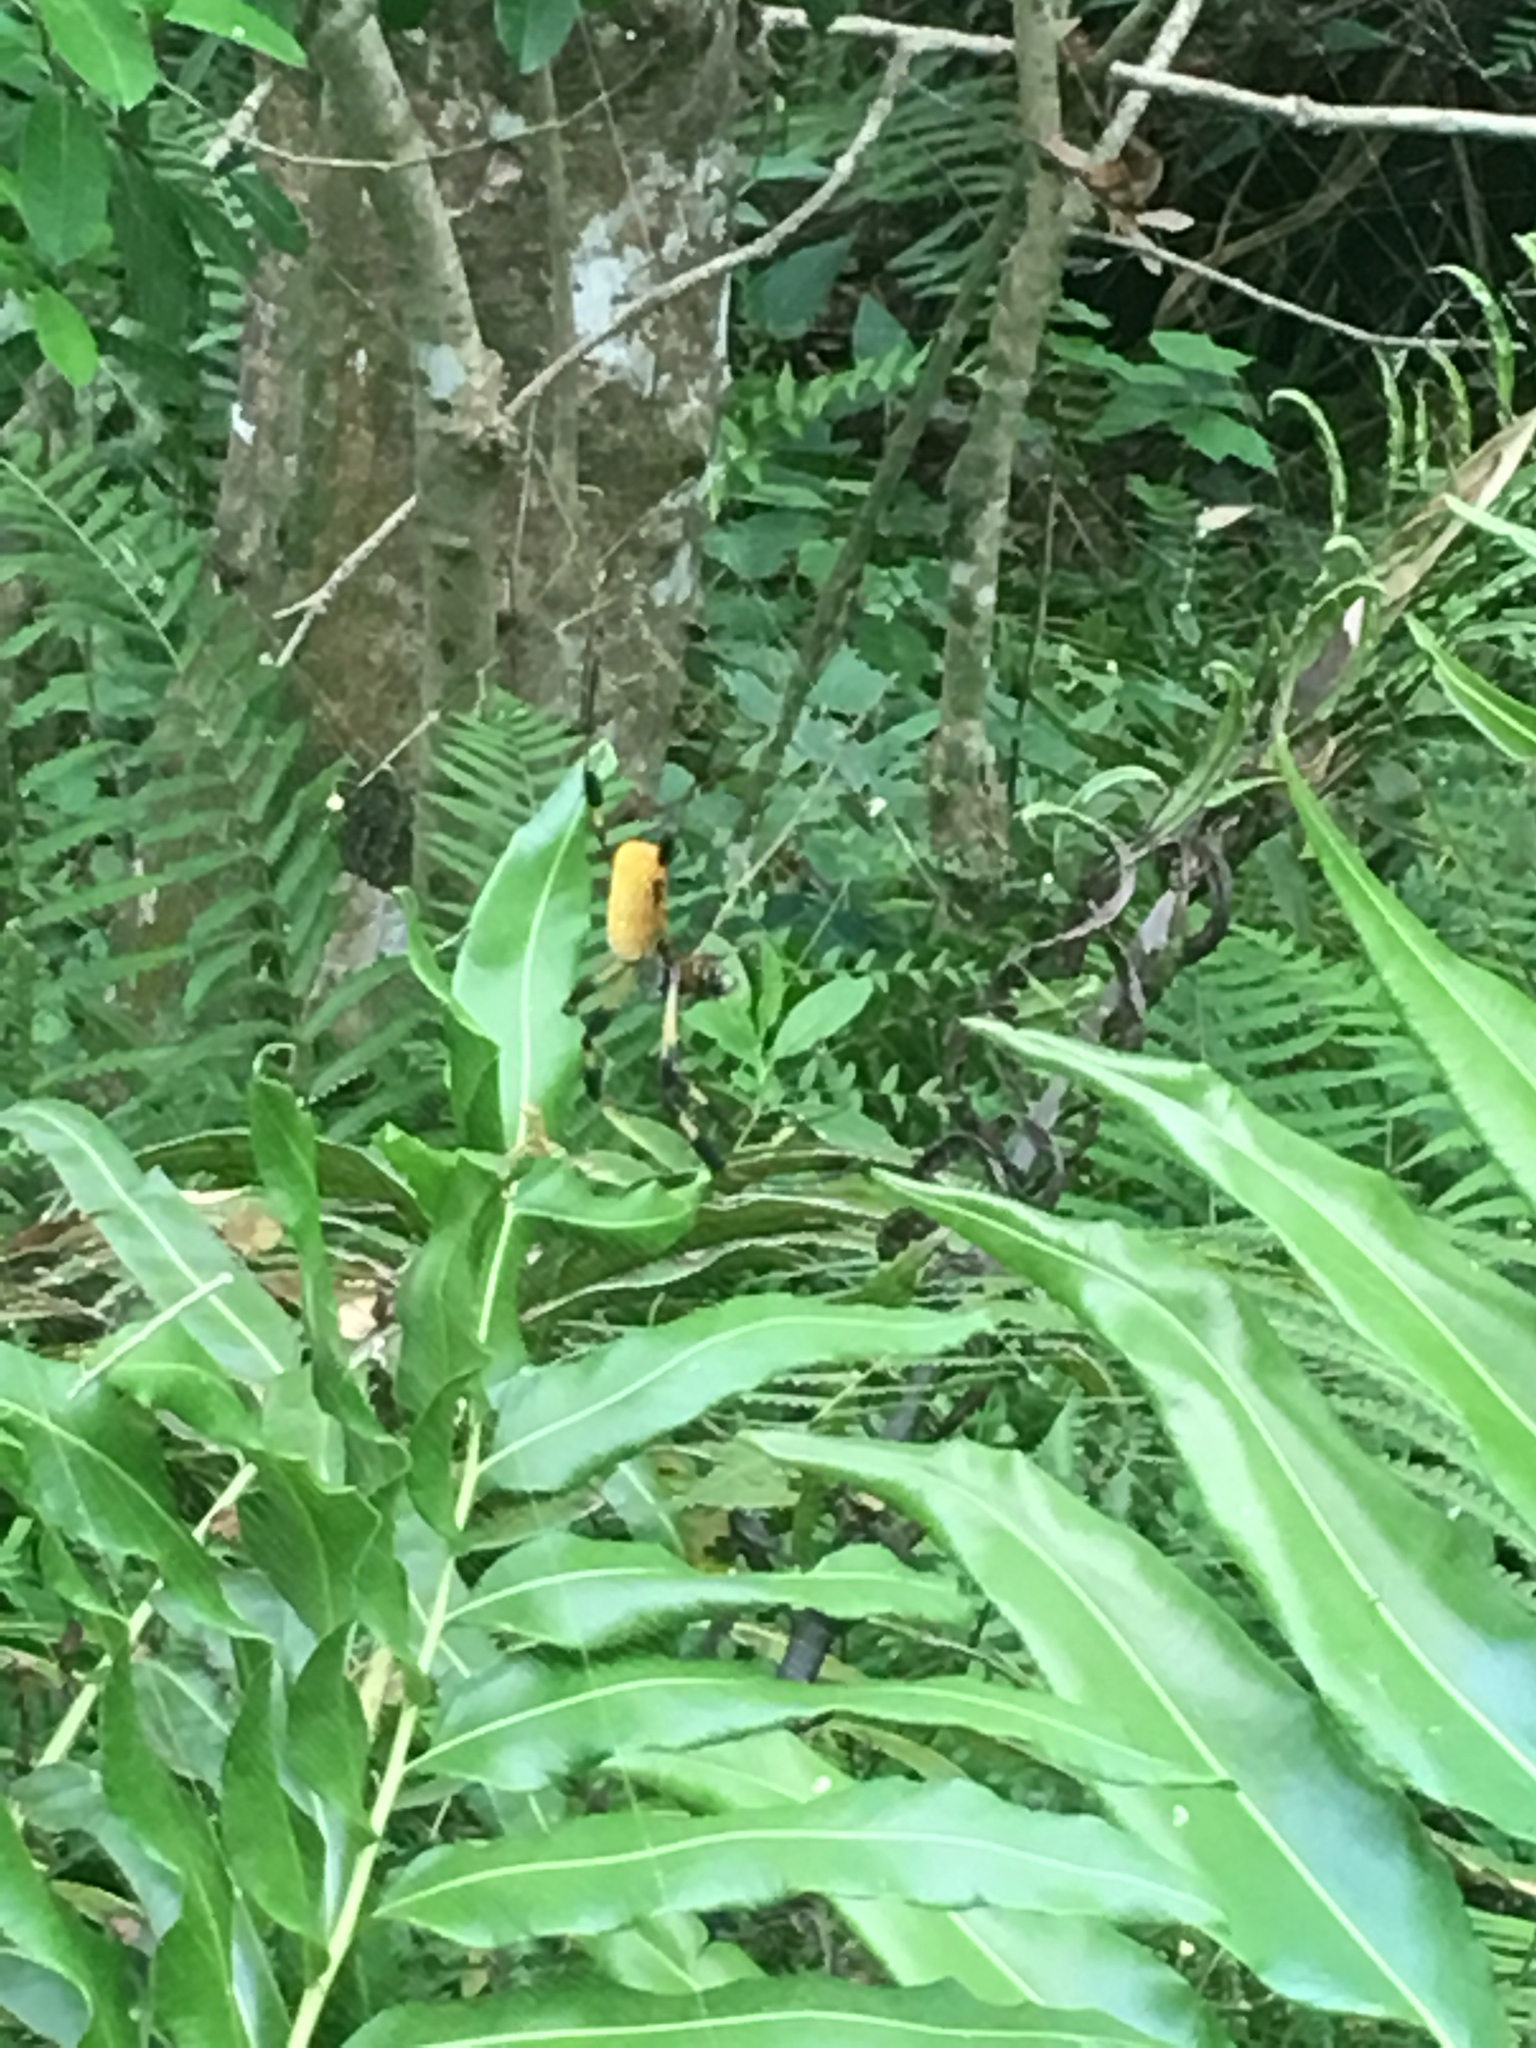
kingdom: Animalia
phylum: Arthropoda
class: Arachnida
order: Araneae
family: Araneidae
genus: Trichonephila
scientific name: Trichonephila clavipes
